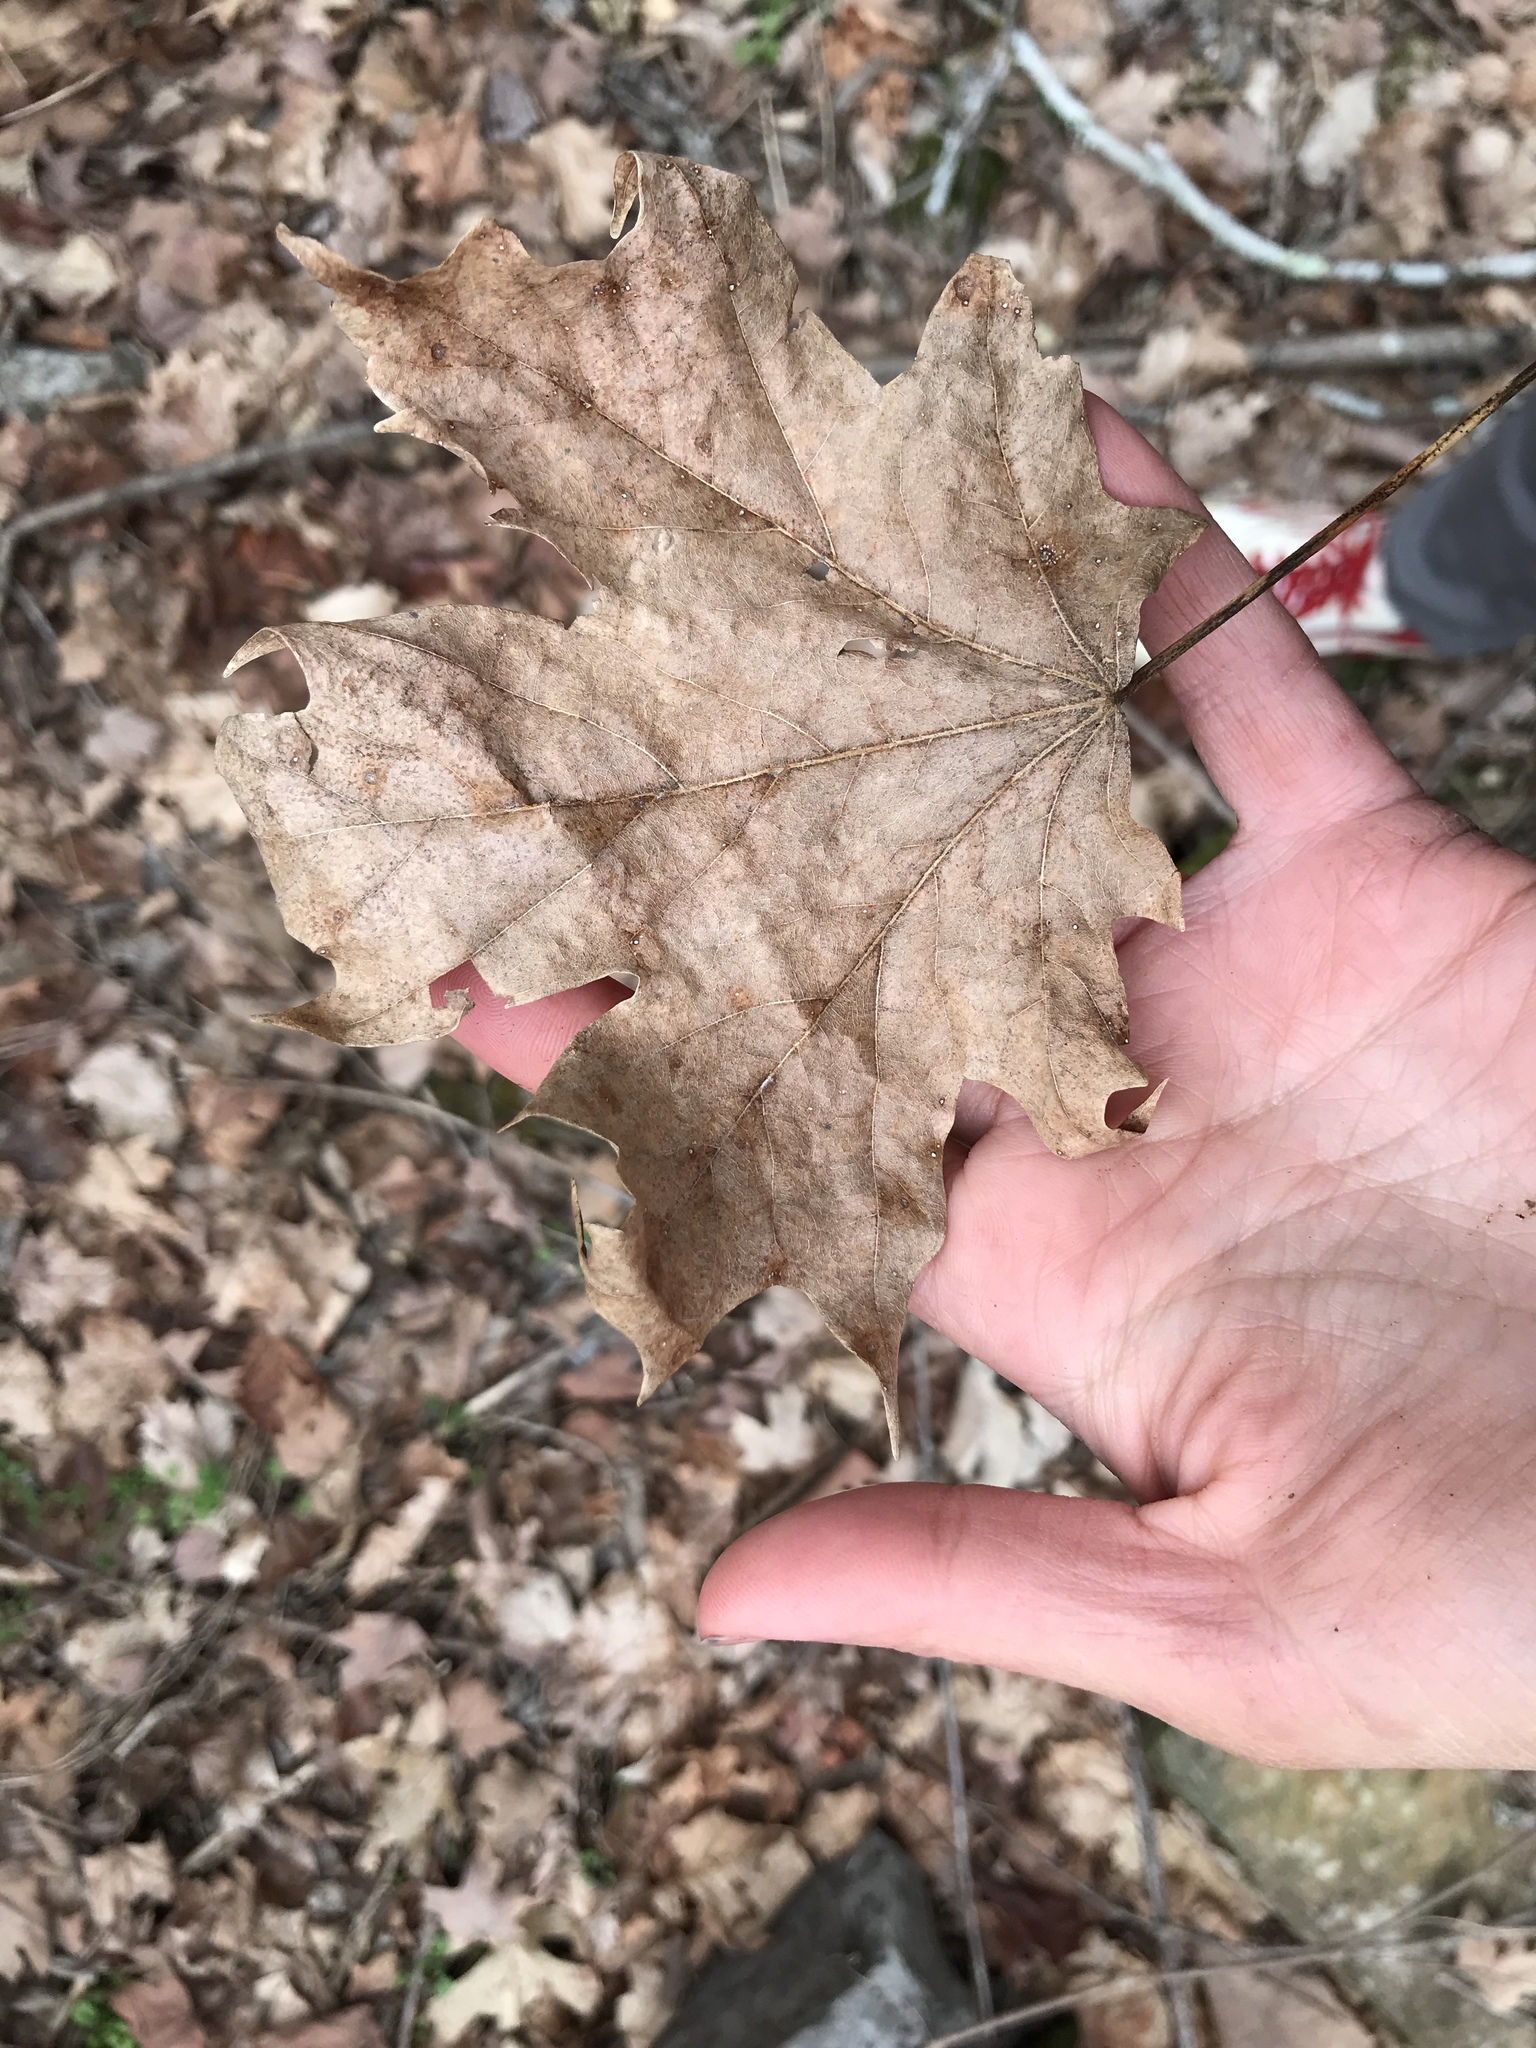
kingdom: Plantae
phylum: Tracheophyta
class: Magnoliopsida
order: Sapindales
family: Sapindaceae
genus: Acer
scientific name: Acer saccharum
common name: Sugar maple
